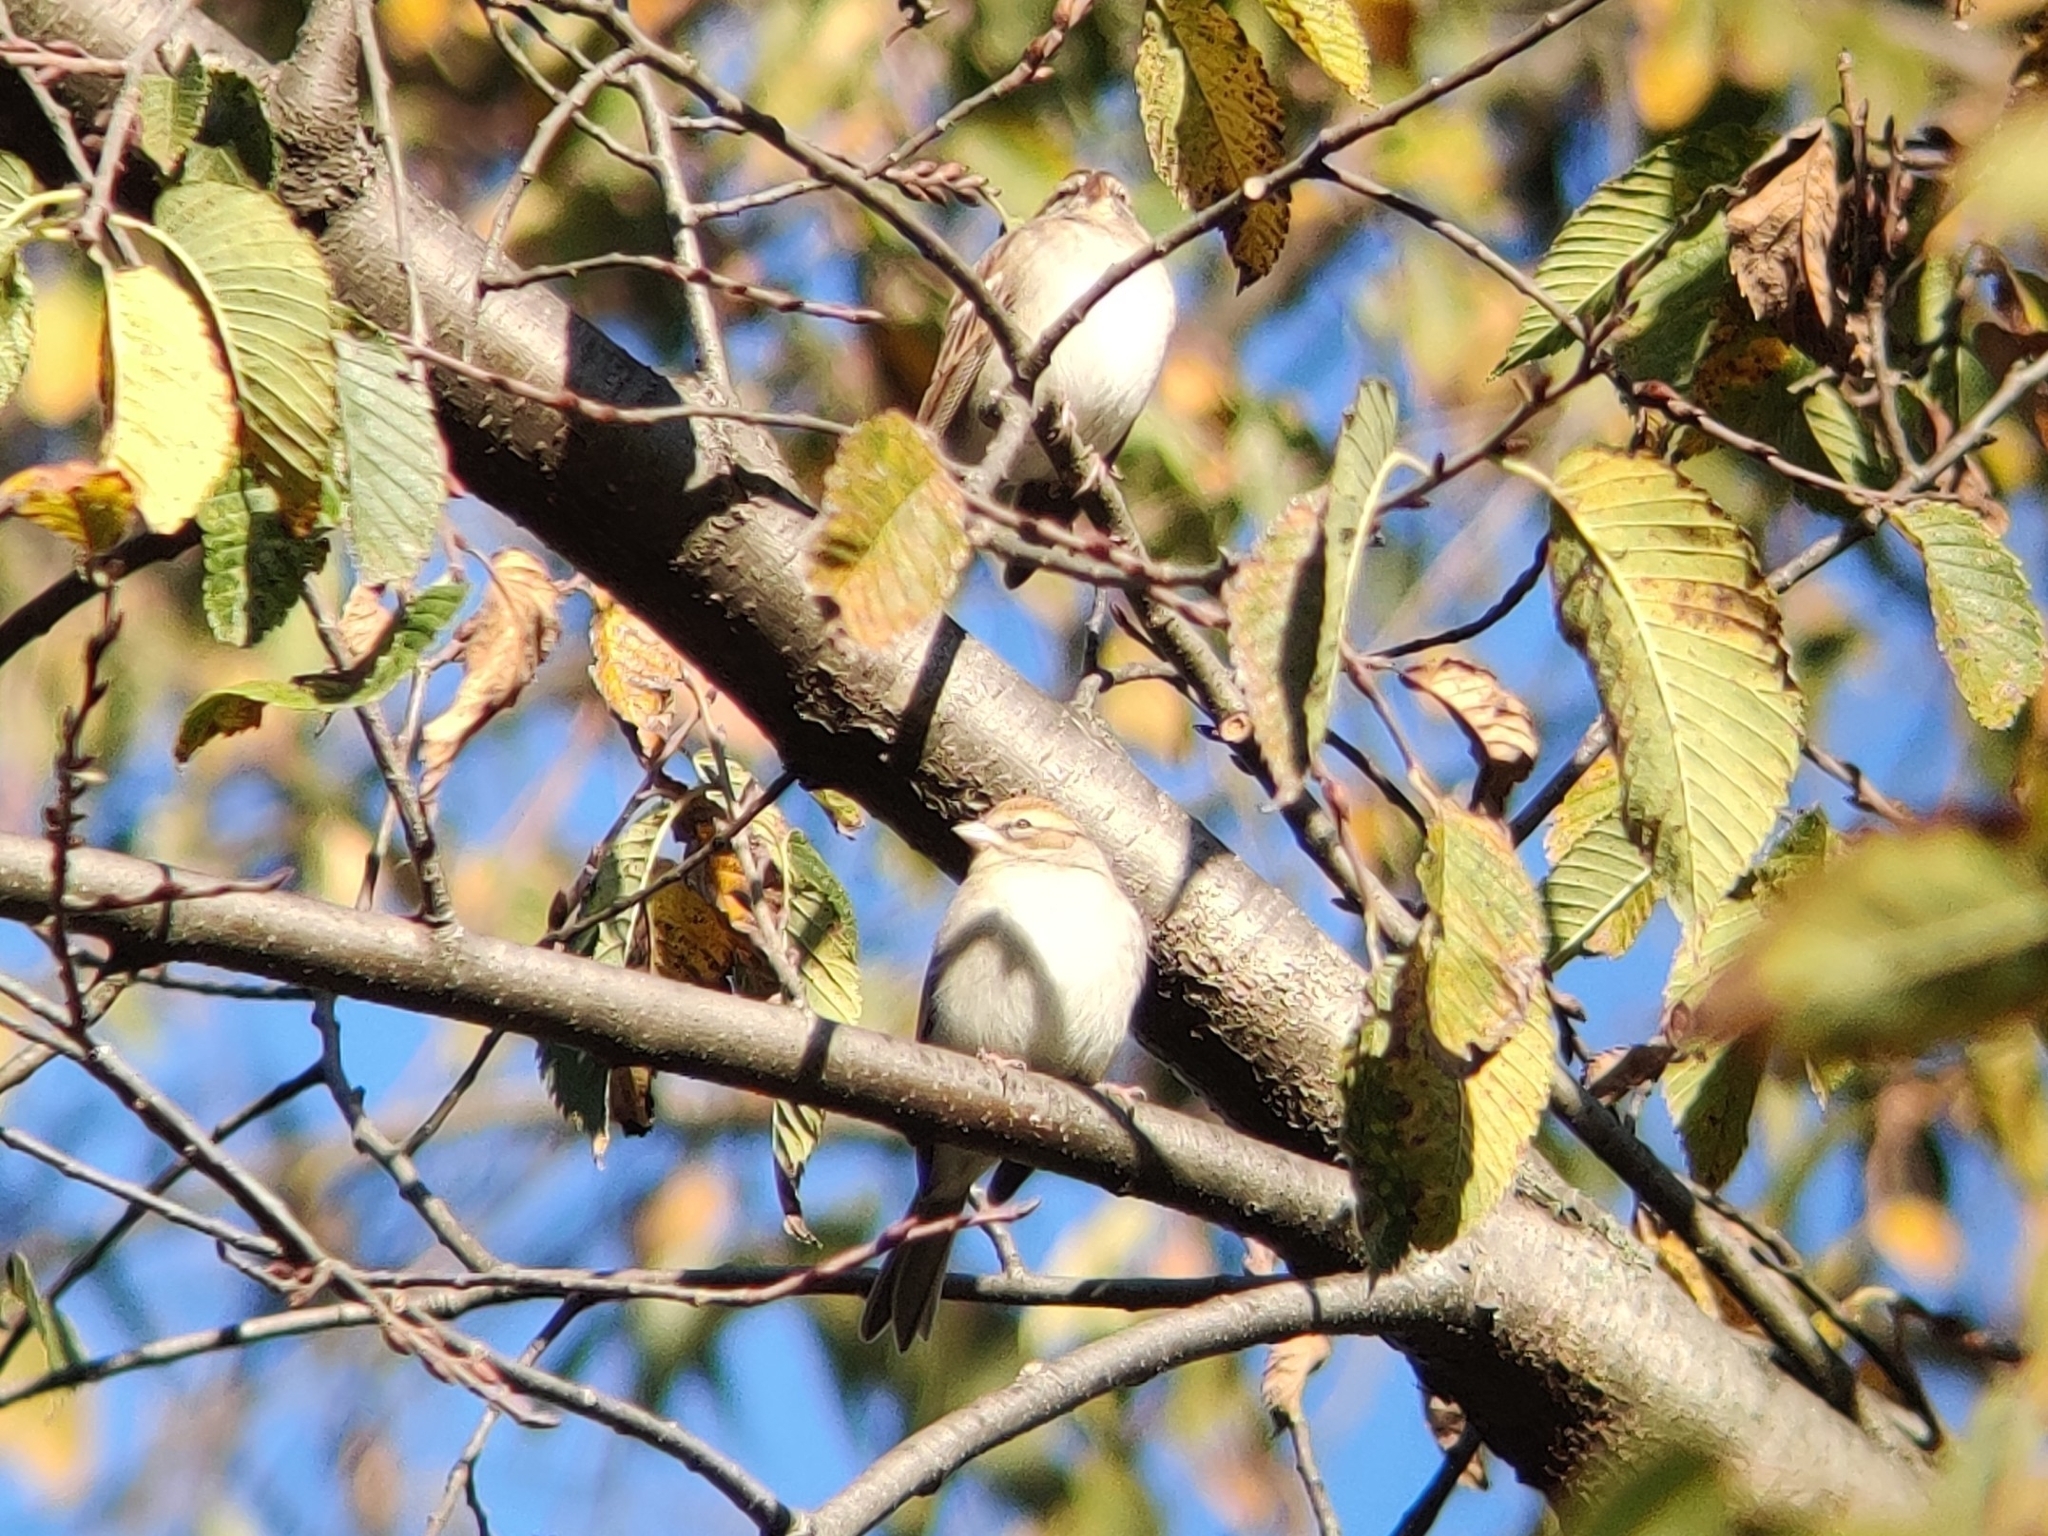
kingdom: Animalia
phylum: Chordata
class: Aves
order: Passeriformes
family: Passerellidae
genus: Spizella
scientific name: Spizella passerina
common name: Chipping sparrow
